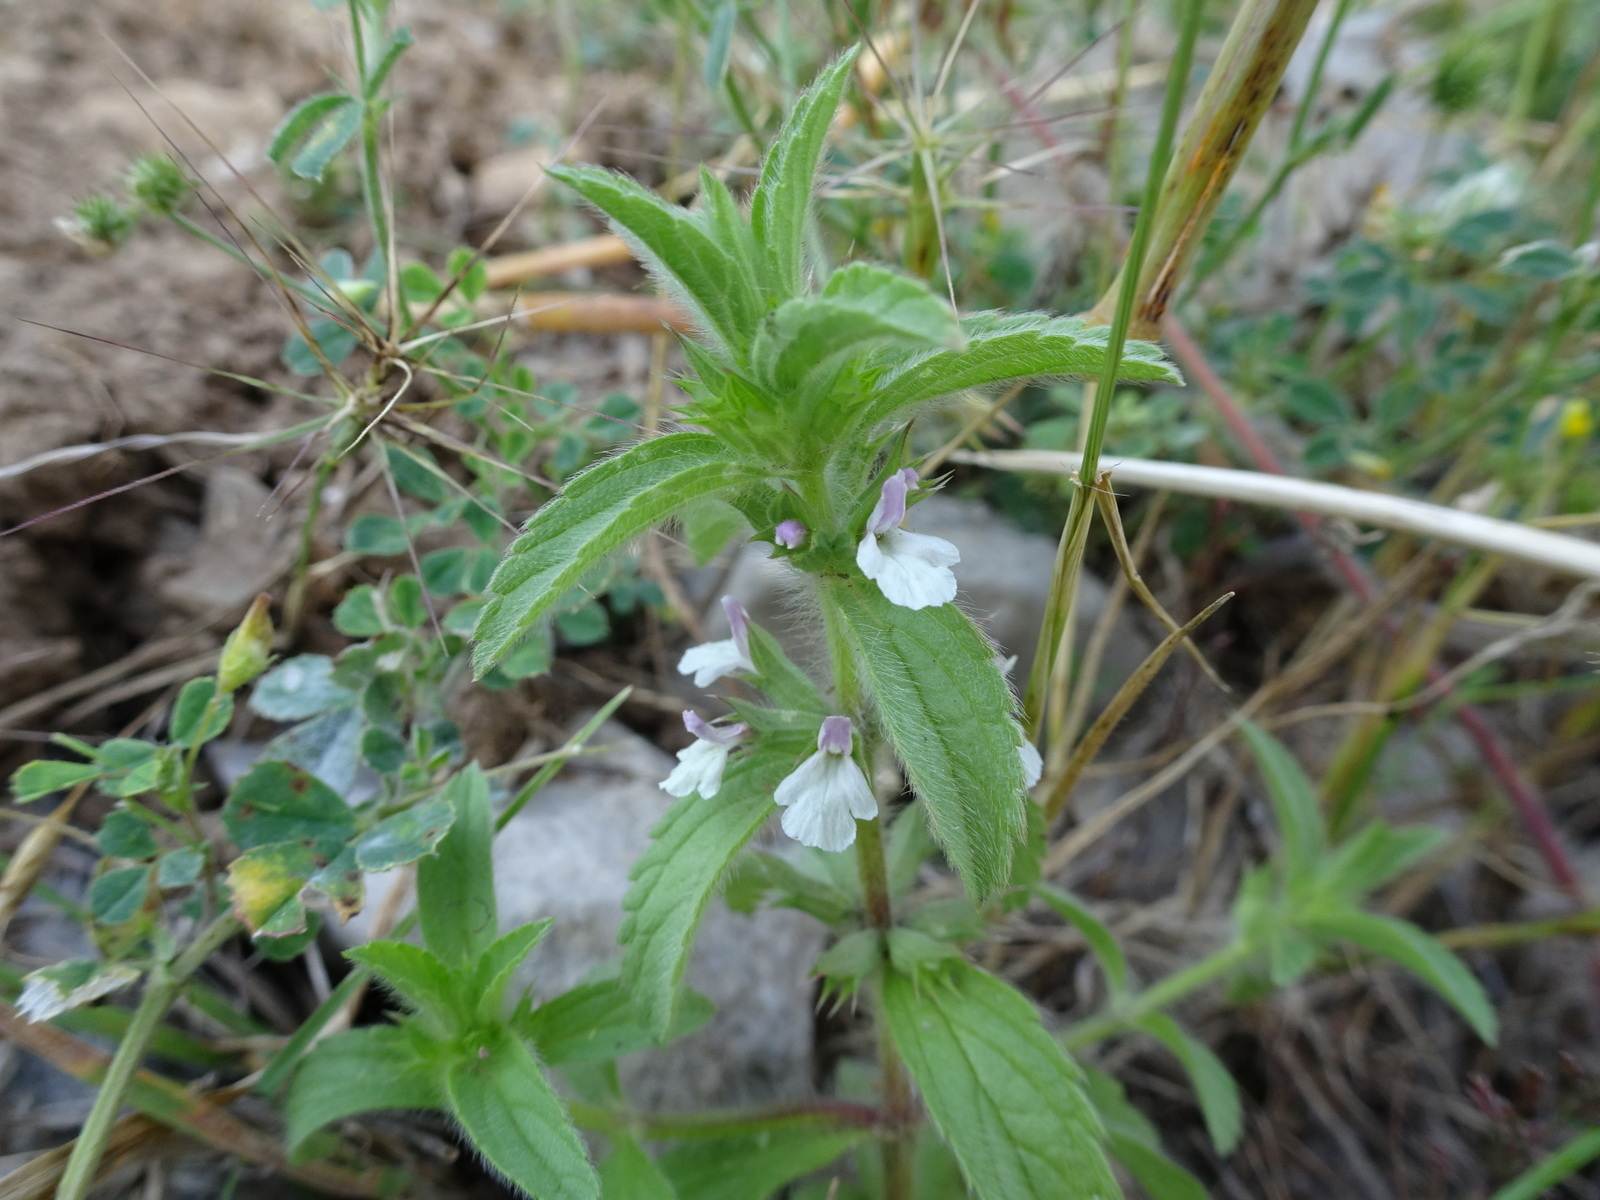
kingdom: Plantae
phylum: Tracheophyta
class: Magnoliopsida
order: Lamiales
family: Lamiaceae
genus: Sideritis
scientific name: Sideritis romana
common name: Simplebeak ironwort
